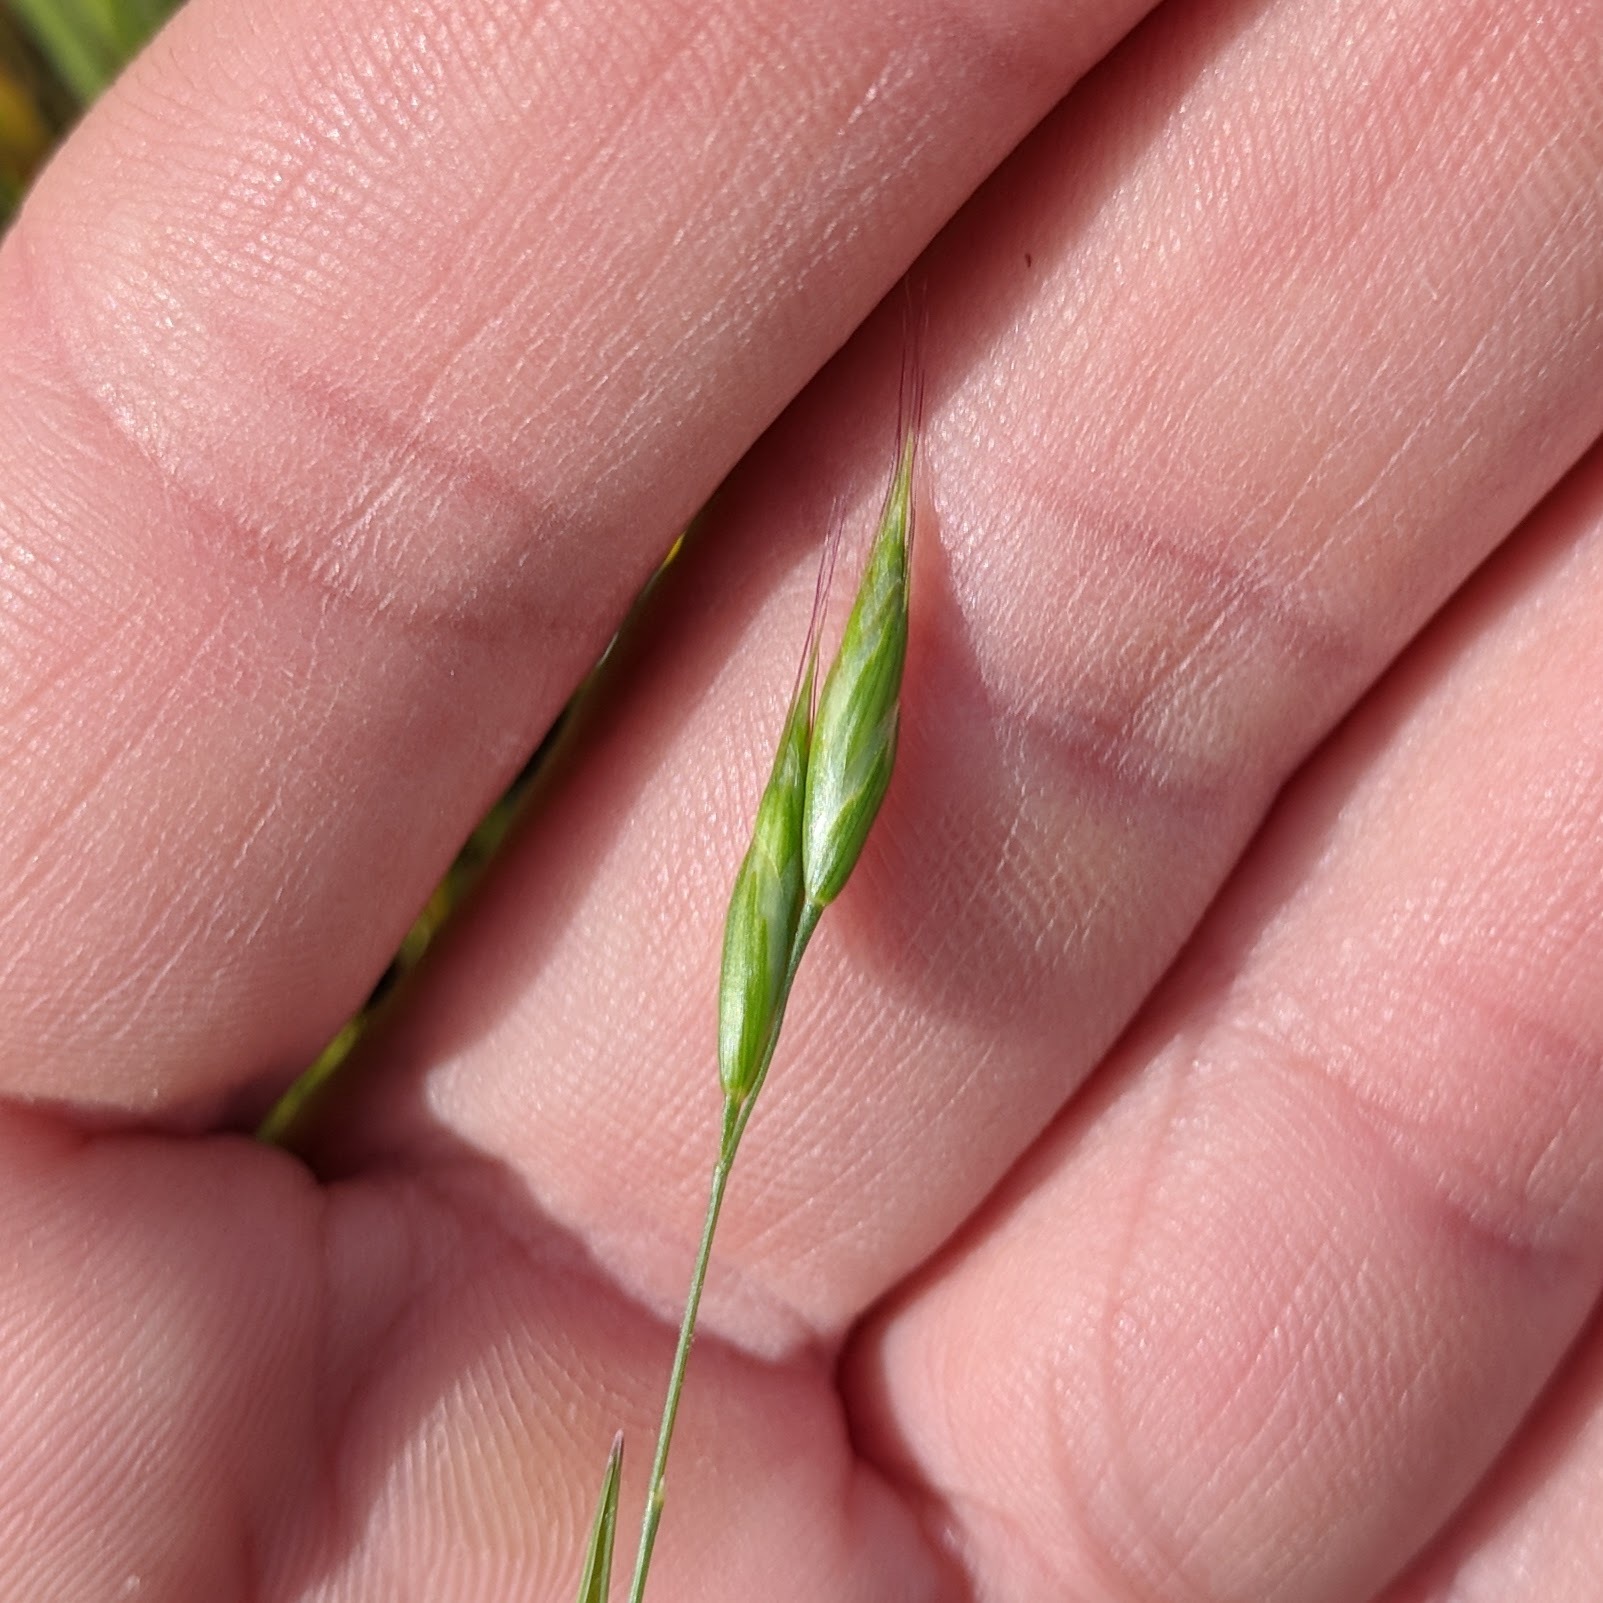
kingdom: Plantae
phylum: Tracheophyta
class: Liliopsida
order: Poales
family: Poaceae
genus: Bromus
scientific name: Bromus hordeaceus
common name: Soft brome
